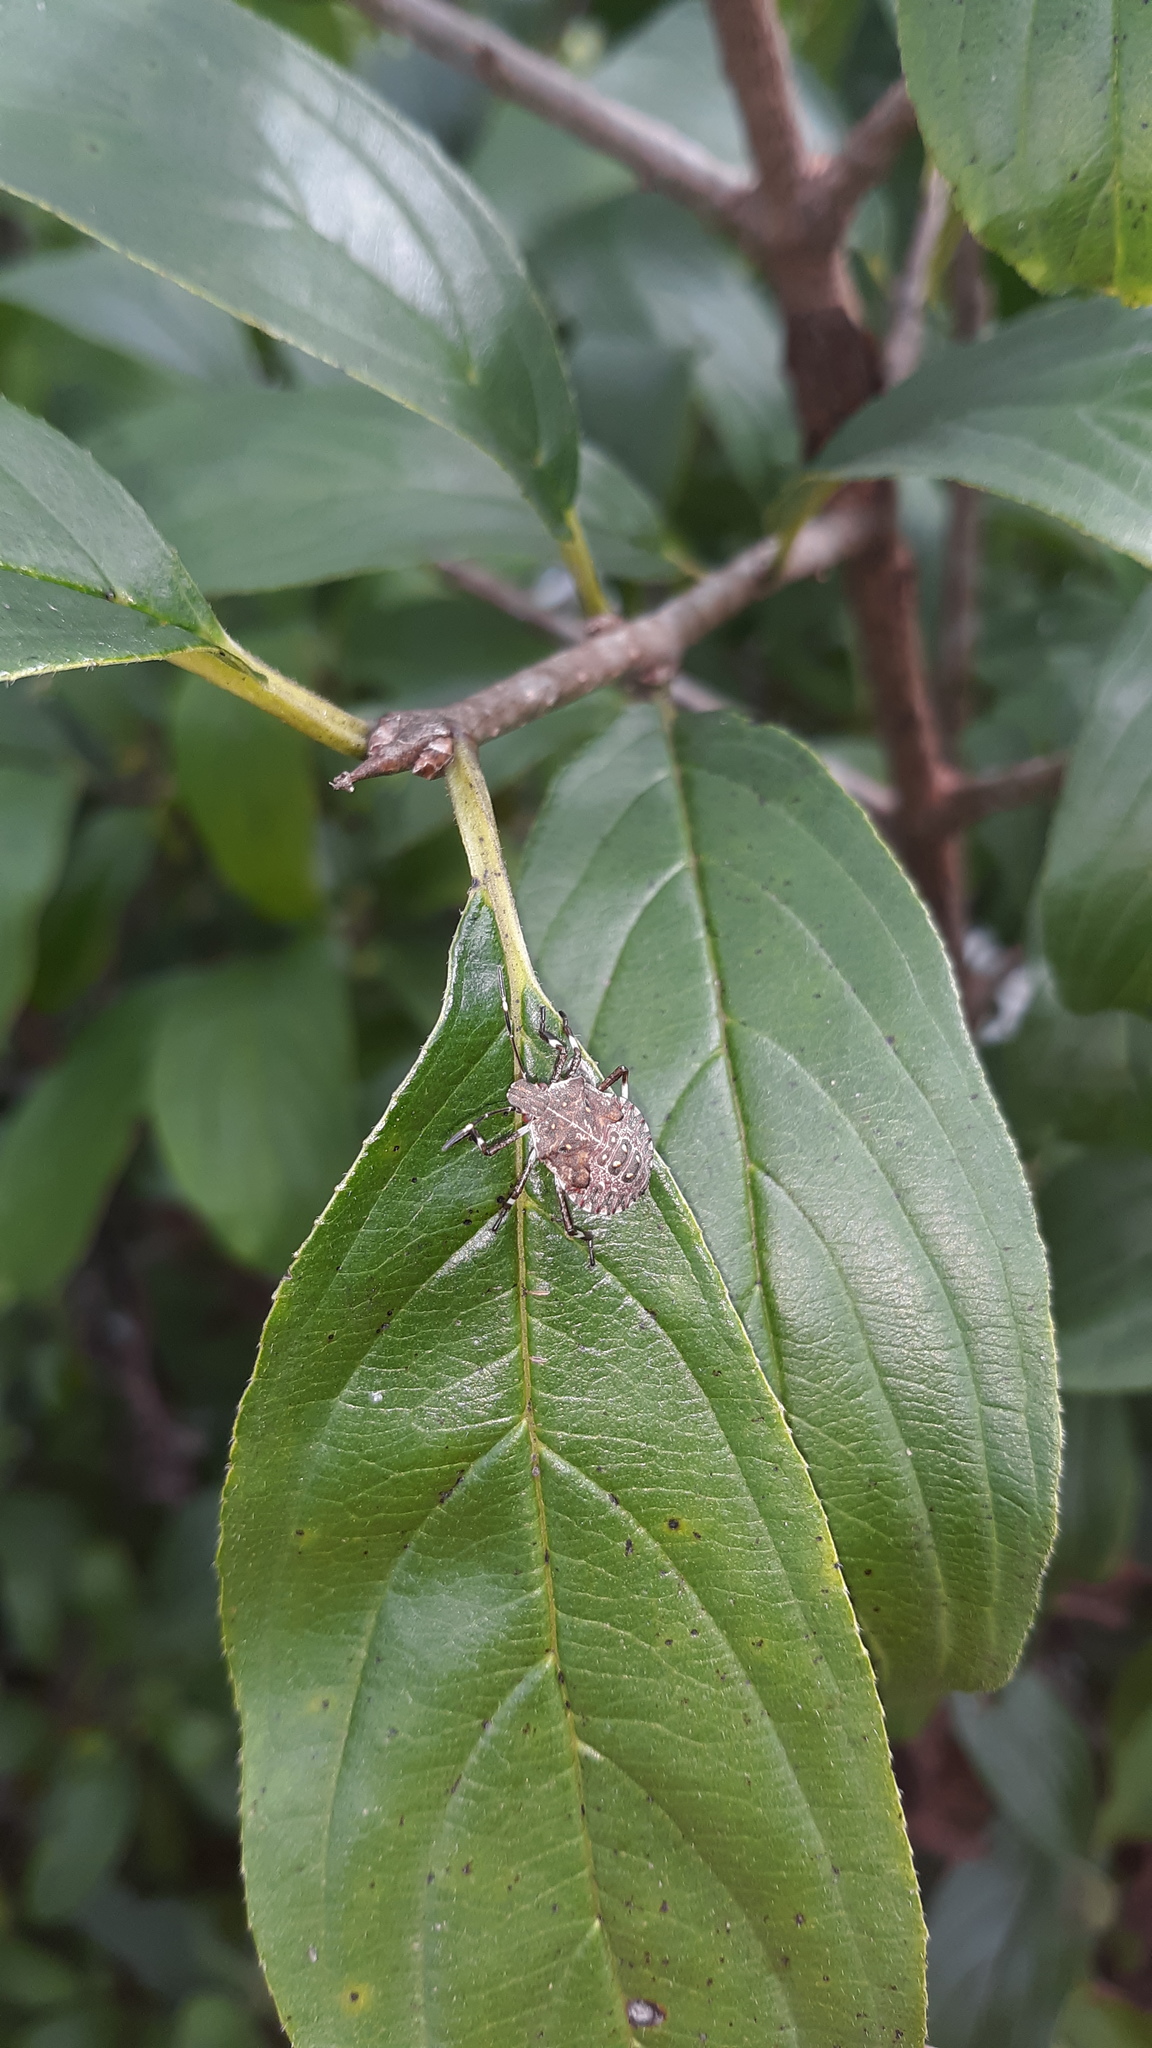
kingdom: Animalia
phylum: Arthropoda
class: Insecta
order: Hemiptera
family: Pentatomidae
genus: Halyomorpha
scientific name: Halyomorpha halys
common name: Brown marmorated stink bug
